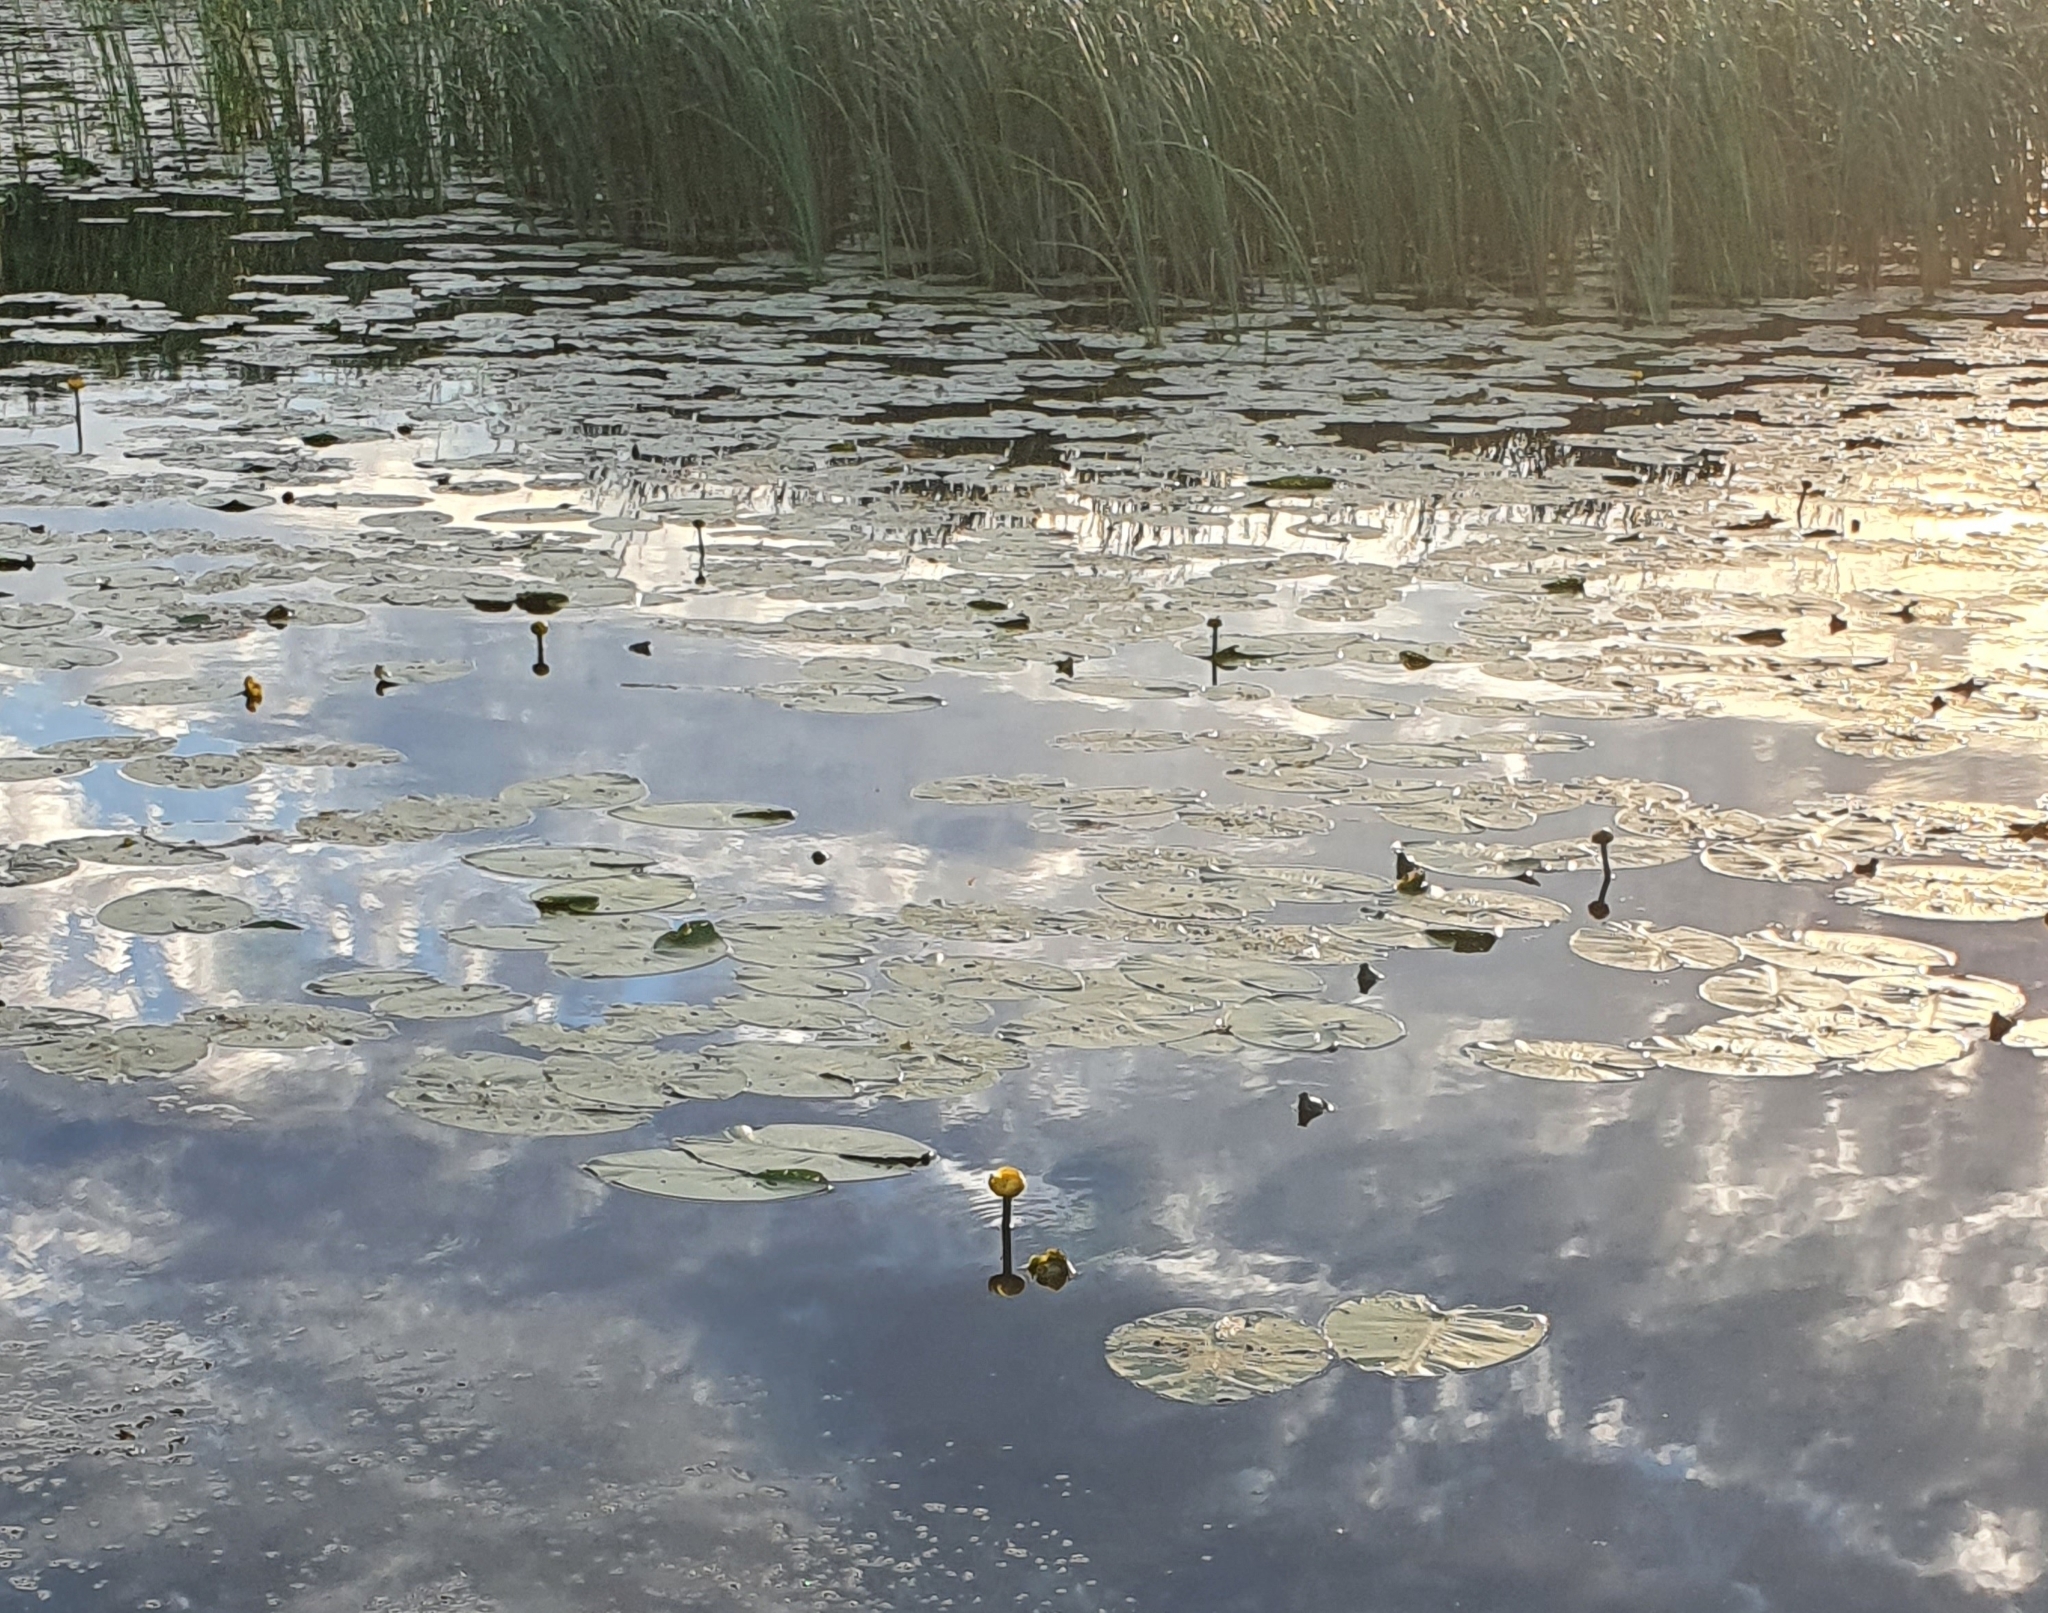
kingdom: Plantae
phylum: Tracheophyta
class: Magnoliopsida
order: Nymphaeales
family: Nymphaeaceae
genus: Nuphar
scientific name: Nuphar lutea
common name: Yellow water-lily
